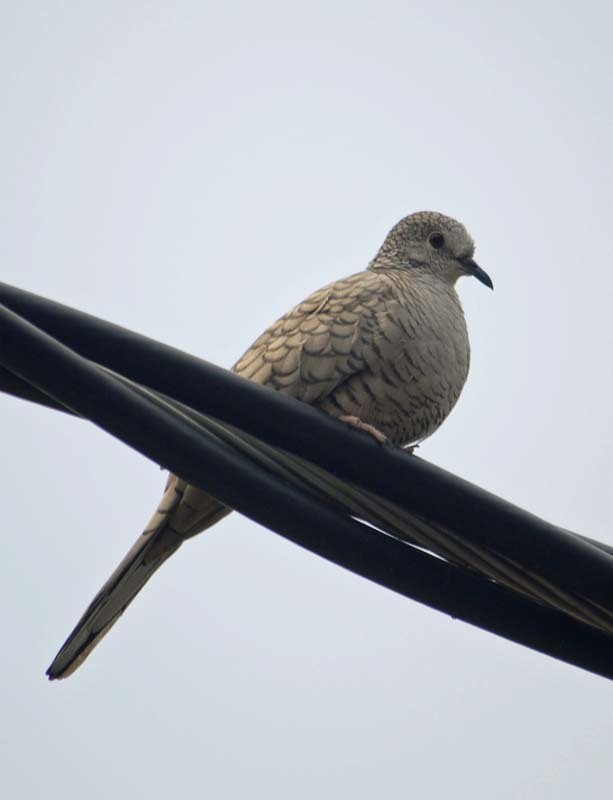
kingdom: Animalia
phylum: Chordata
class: Aves
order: Columbiformes
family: Columbidae
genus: Columbina
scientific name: Columbina inca
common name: Inca dove
